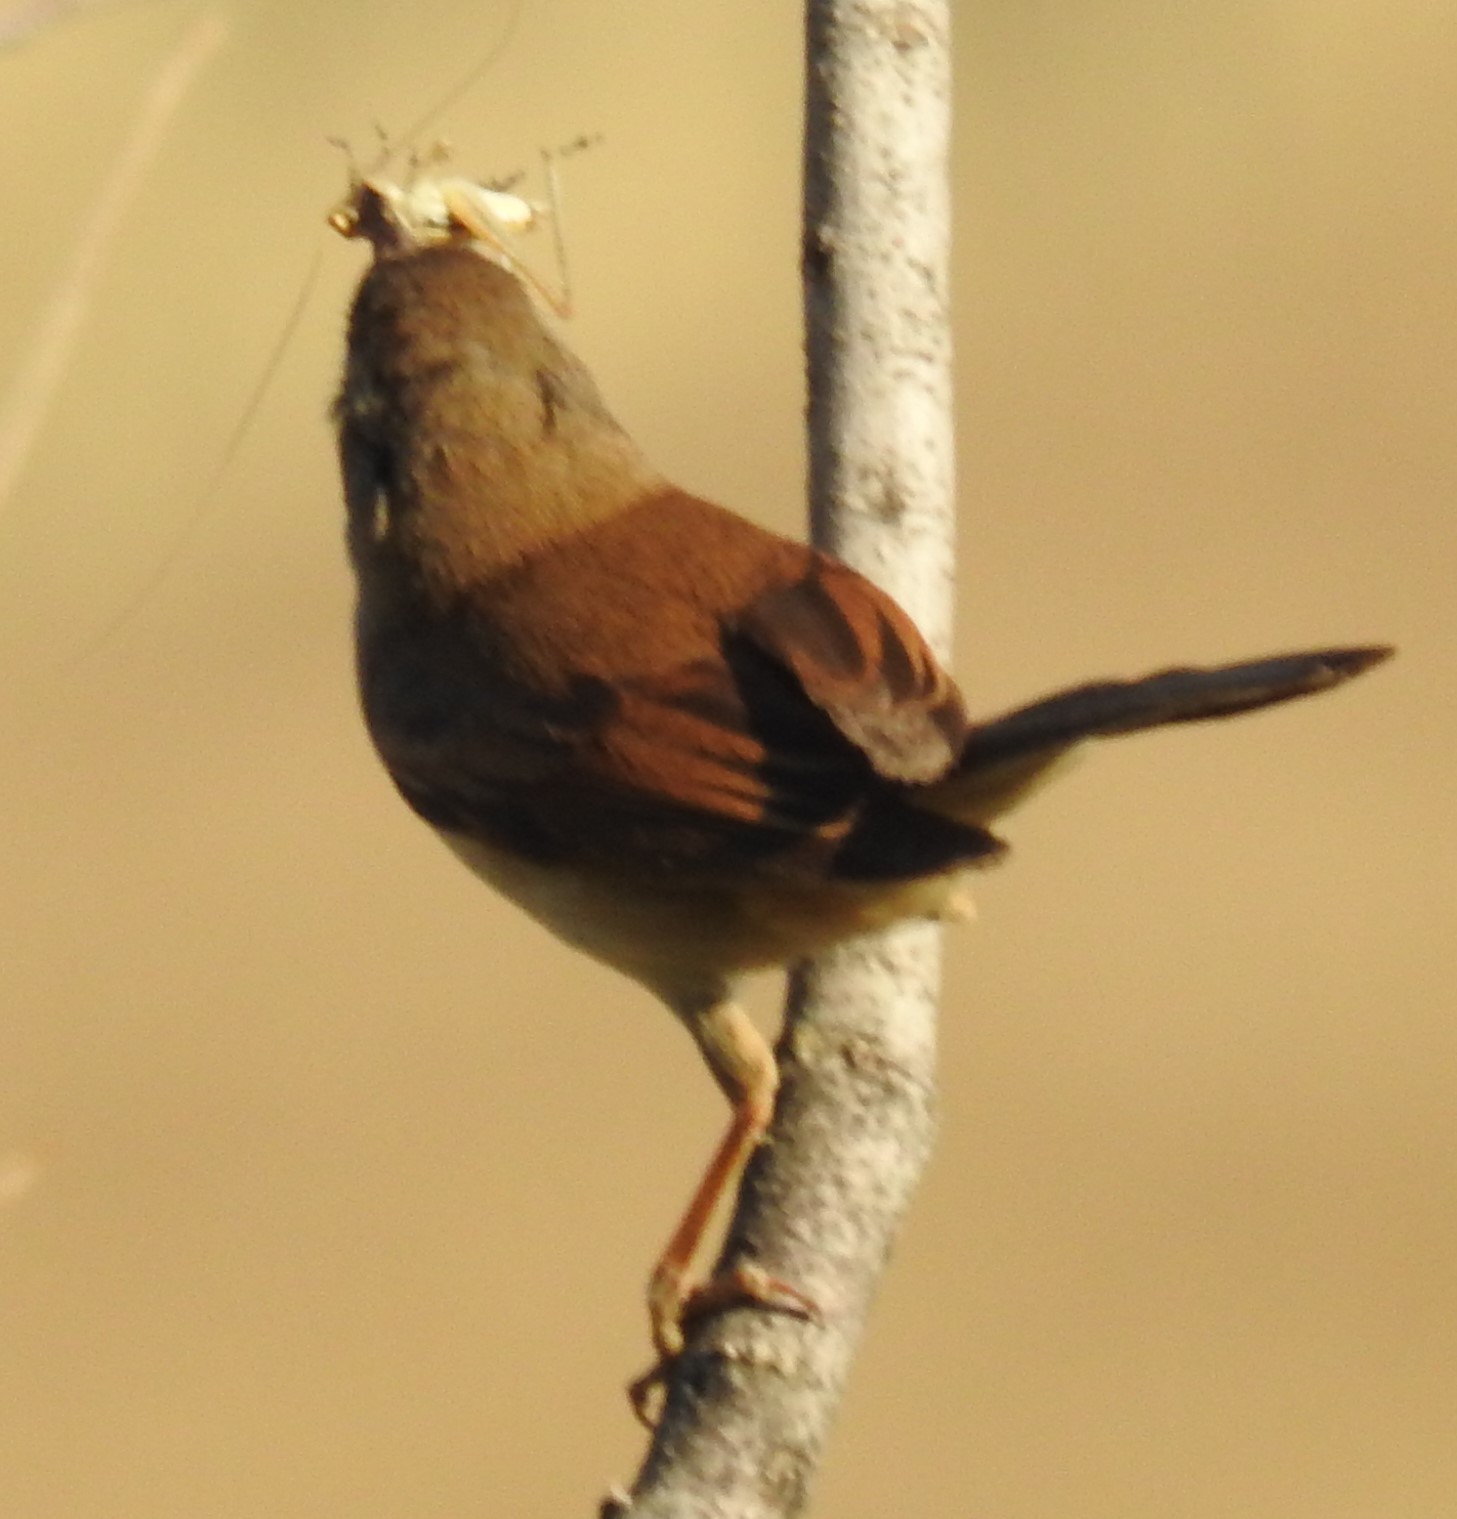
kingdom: Animalia
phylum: Chordata
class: Aves
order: Passeriformes
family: Sylviidae
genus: Sylvia
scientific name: Sylvia communis
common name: Common whitethroat
